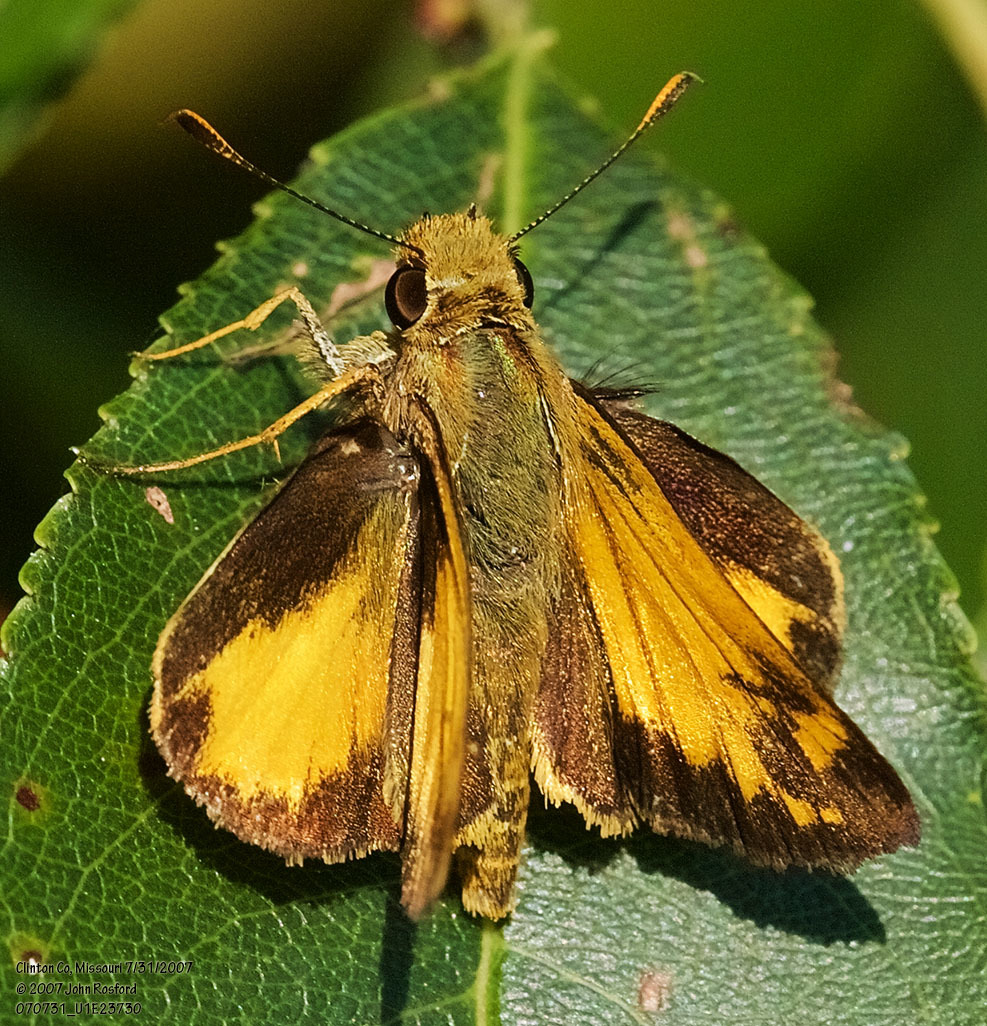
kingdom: Animalia
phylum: Arthropoda
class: Insecta
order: Lepidoptera
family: Hesperiidae
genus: Lon
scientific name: Lon zabulon
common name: Zabulon skipper
